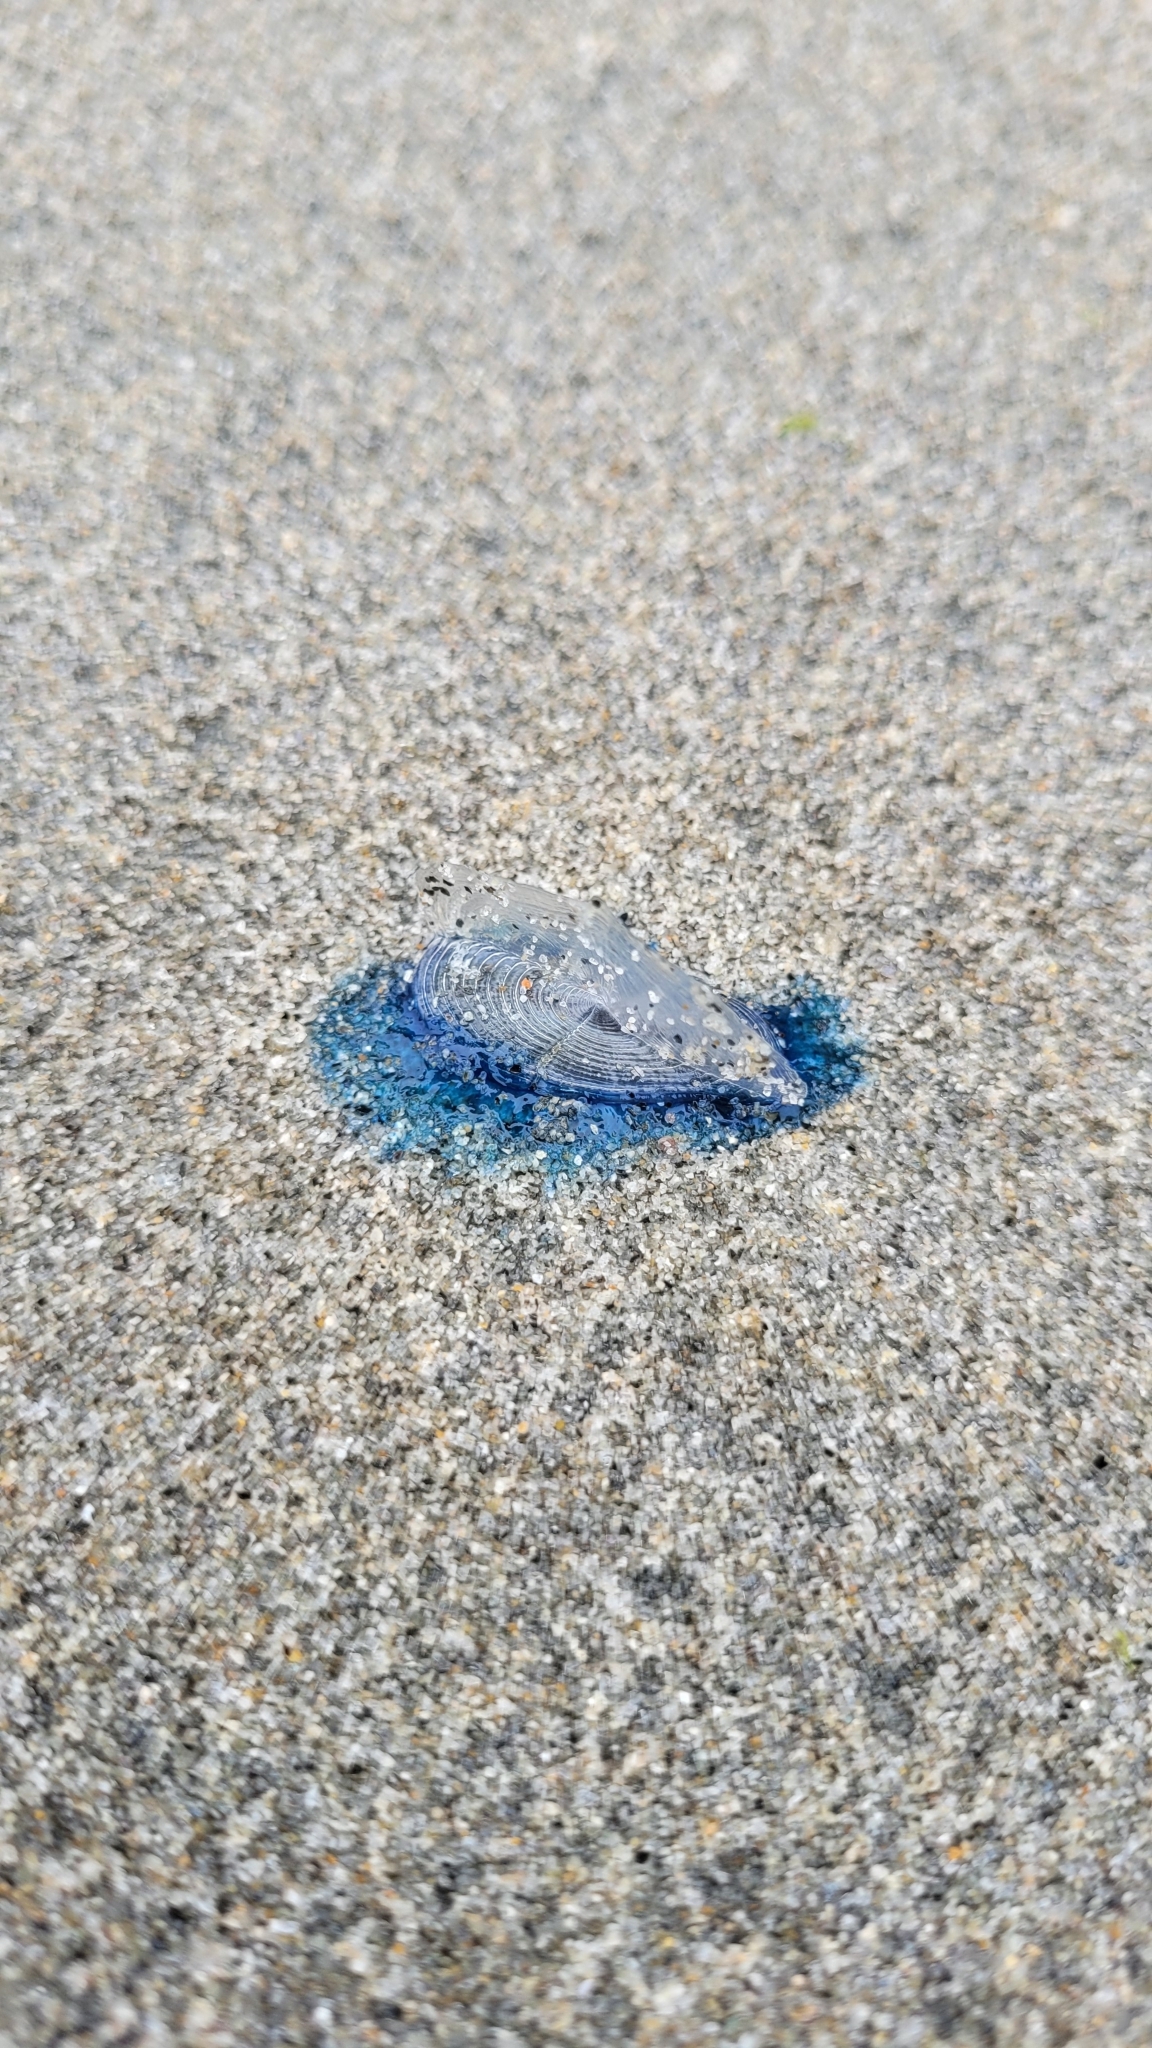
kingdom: Animalia
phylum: Cnidaria
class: Hydrozoa
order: Anthoathecata
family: Porpitidae
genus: Velella
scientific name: Velella velella
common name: By-the-wind-sailor
